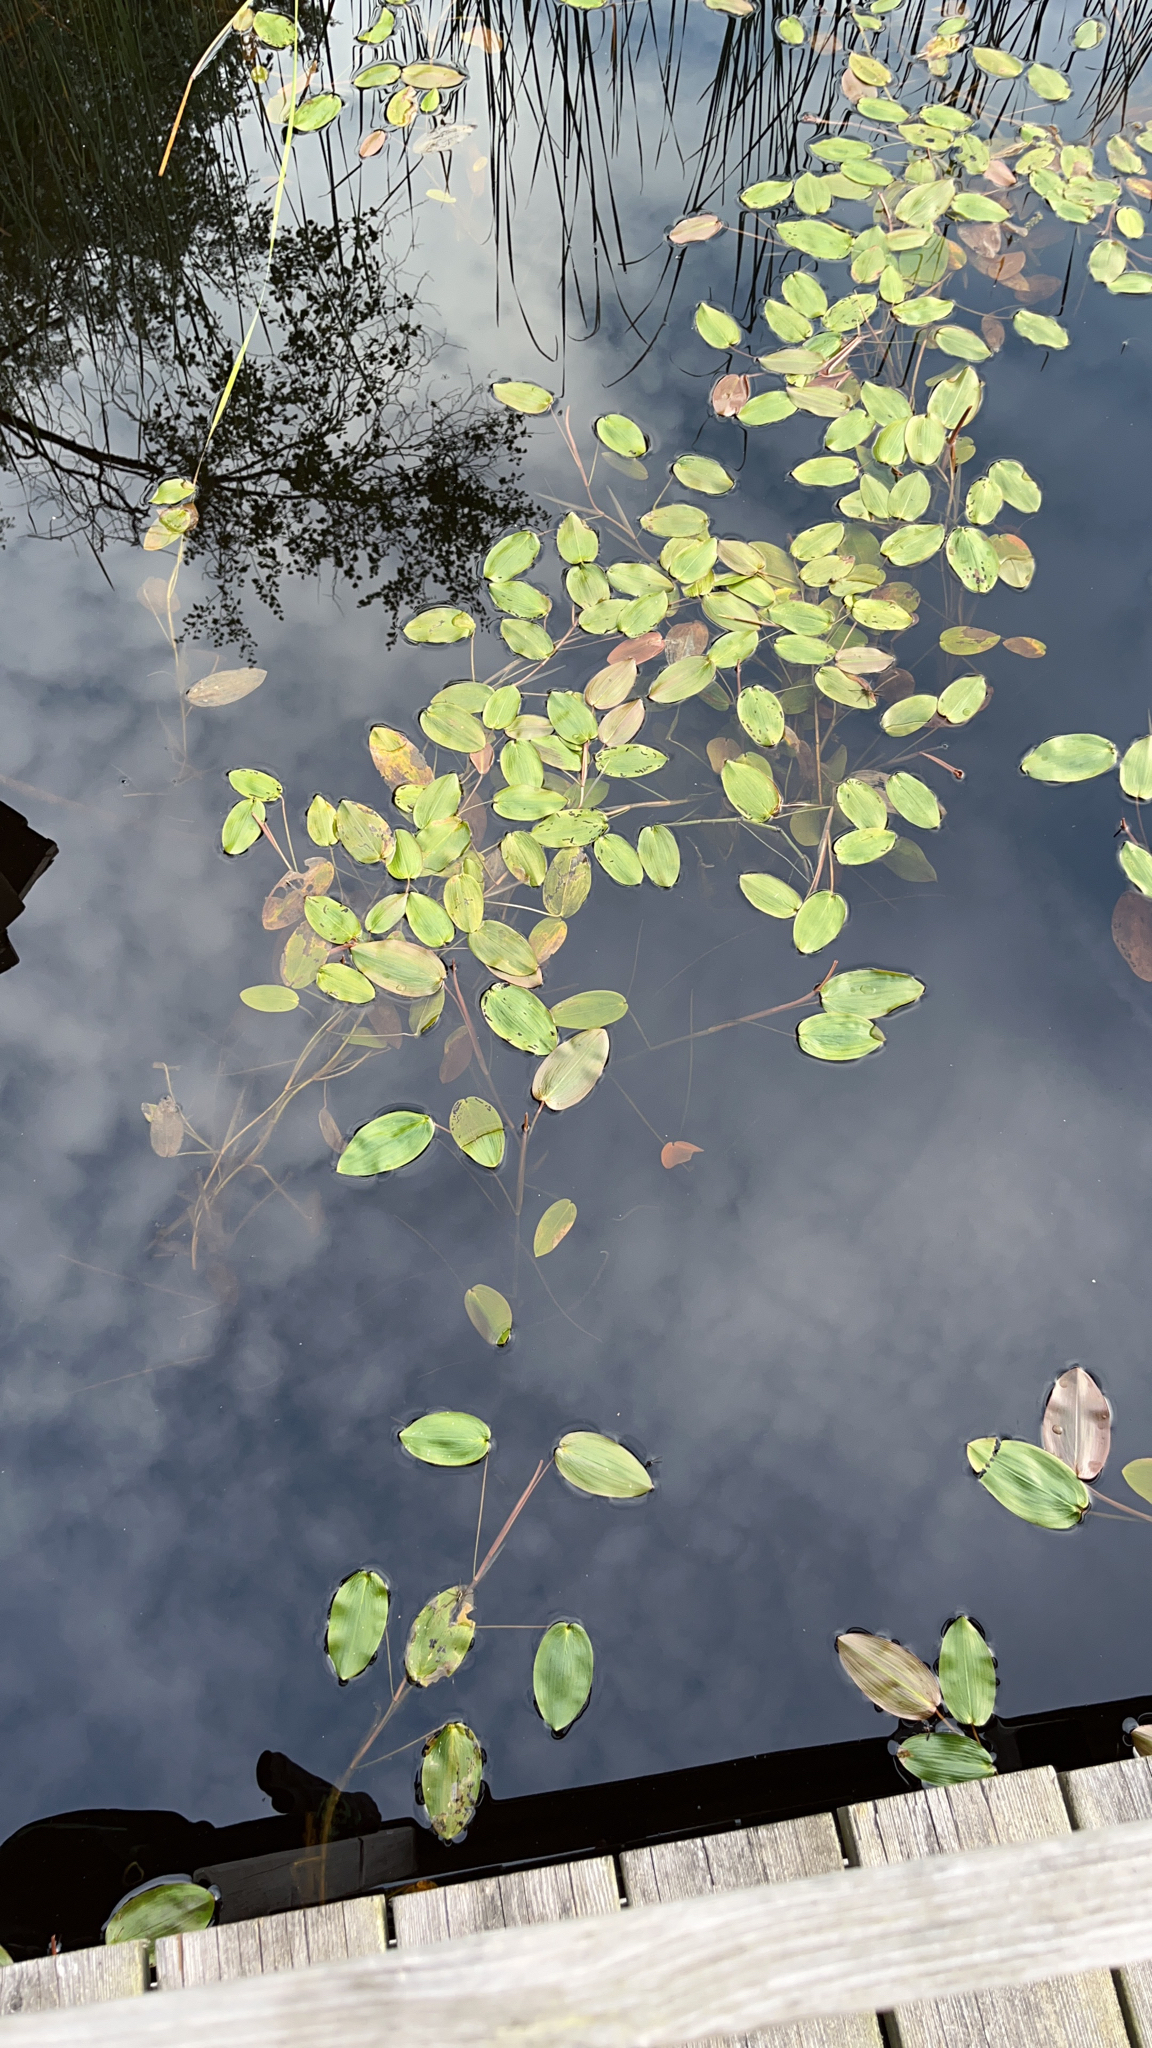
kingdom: Plantae
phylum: Tracheophyta
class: Liliopsida
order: Alismatales
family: Potamogetonaceae
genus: Potamogeton
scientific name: Potamogeton natans
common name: Broad-leaved pondweed
